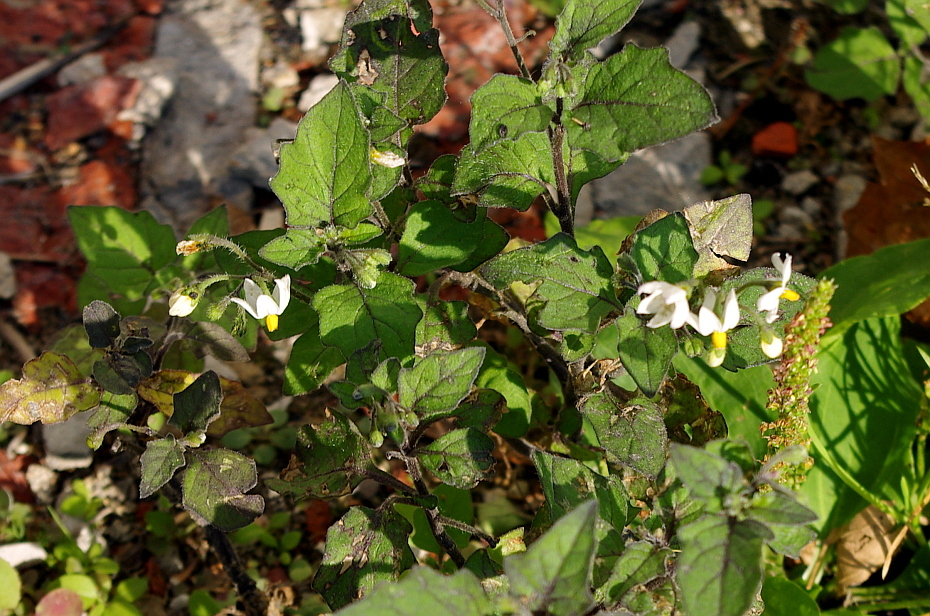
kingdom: Plantae
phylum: Tracheophyta
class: Magnoliopsida
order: Solanales
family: Solanaceae
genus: Solanum
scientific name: Solanum nigrum
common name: Black nightshade
